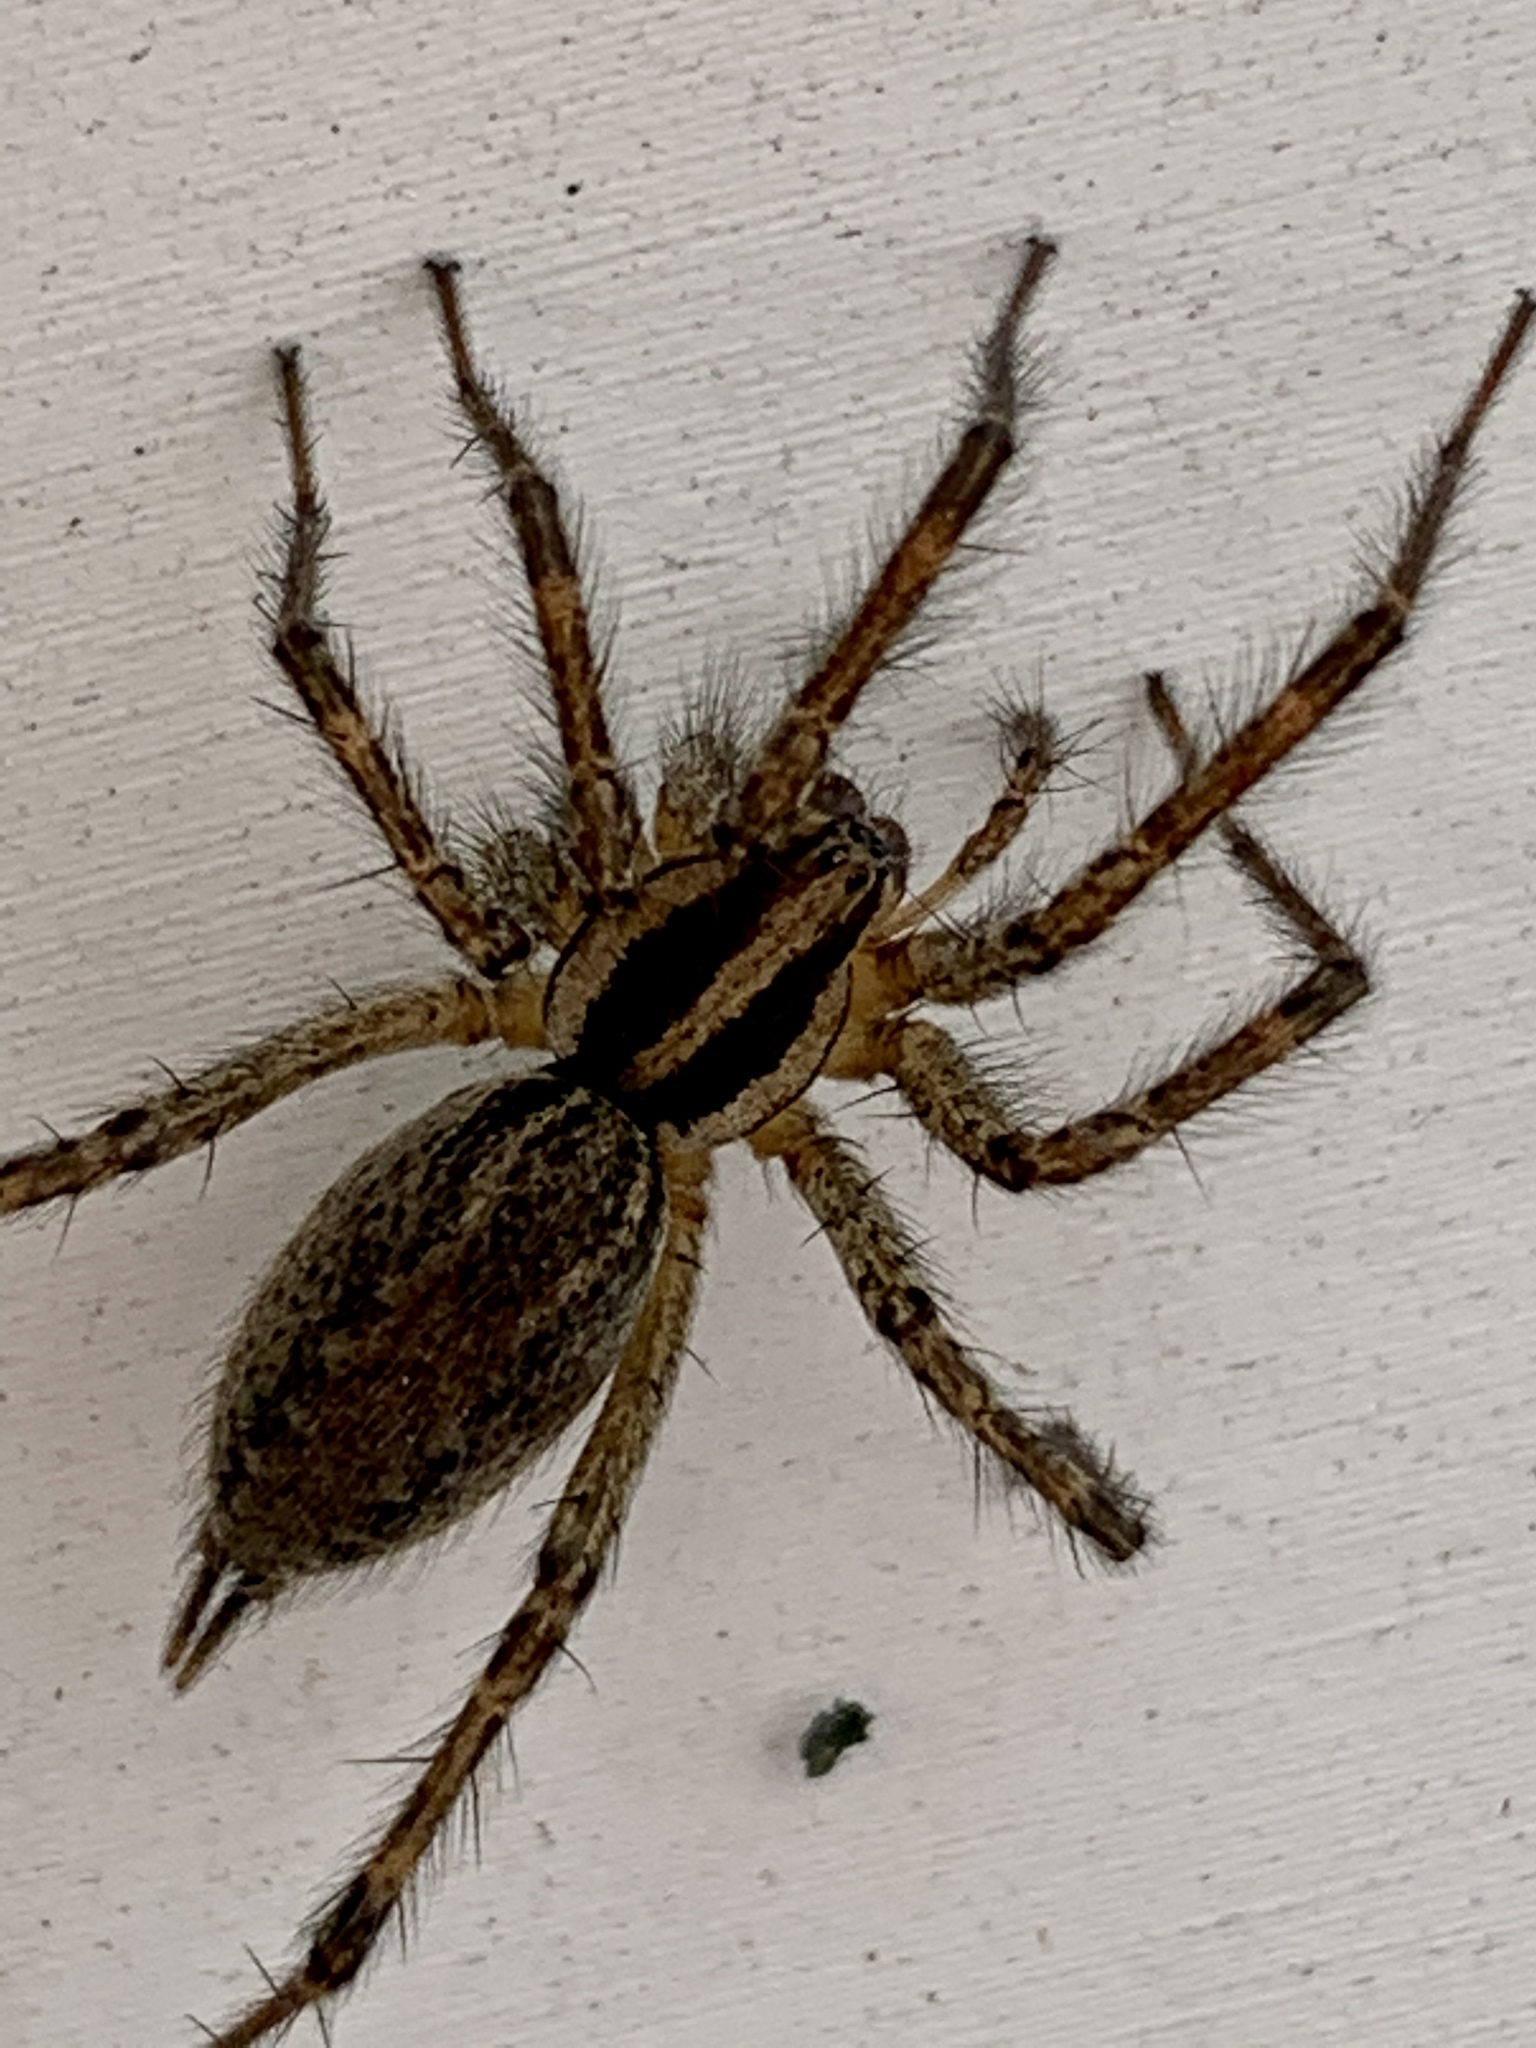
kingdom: Animalia
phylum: Arthropoda
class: Arachnida
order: Araneae
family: Agelenidae
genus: Agelenopsis
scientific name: Agelenopsis
